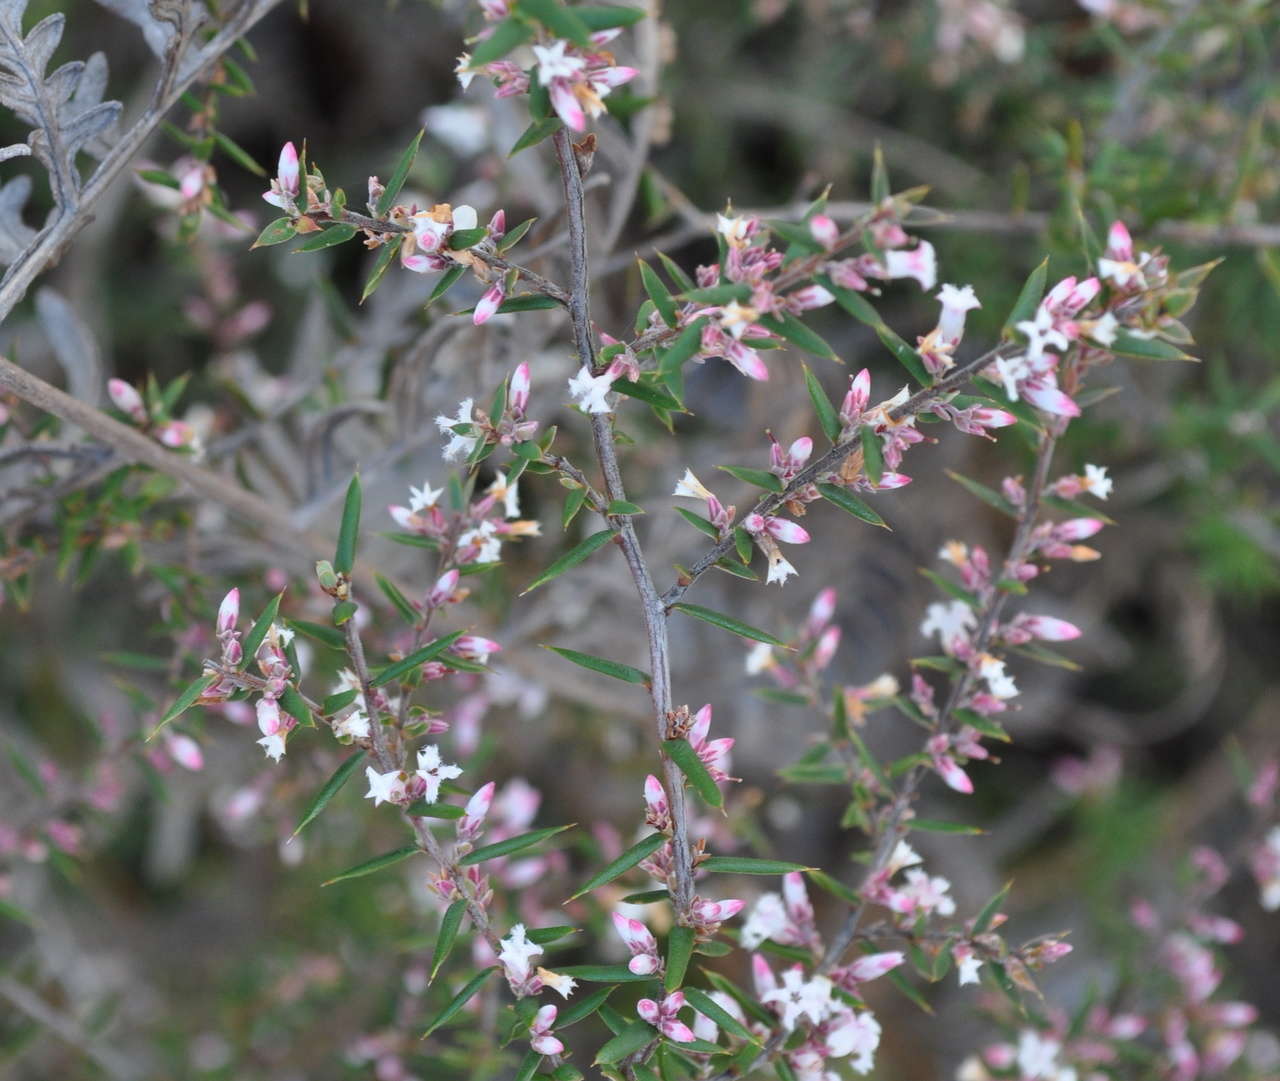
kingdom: Plantae
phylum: Tracheophyta
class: Magnoliopsida
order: Ericales
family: Ericaceae
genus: Styphelia
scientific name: Styphelia ericoides
